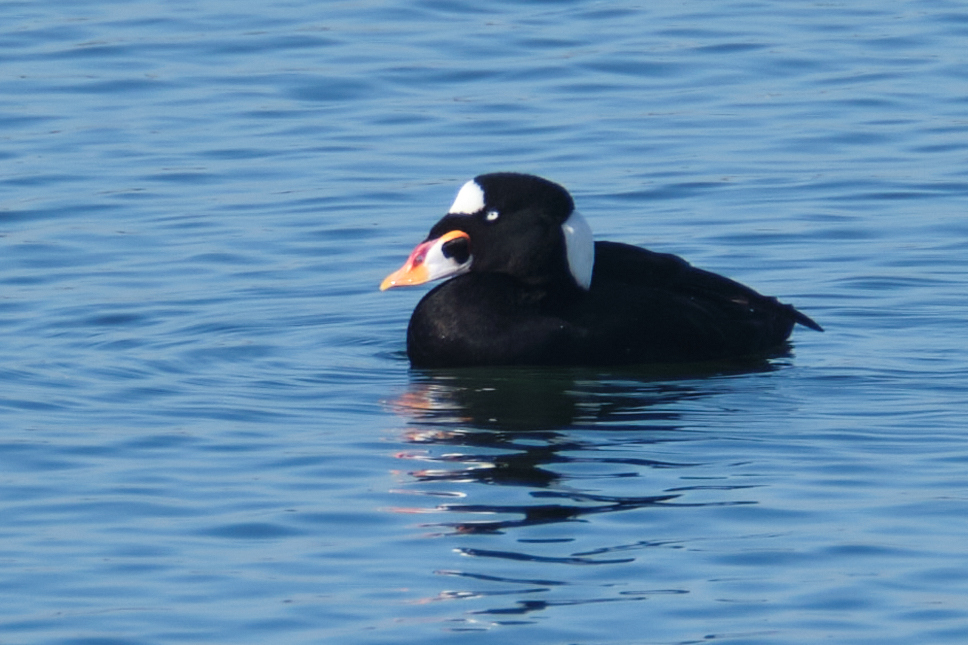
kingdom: Animalia
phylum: Chordata
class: Aves
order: Anseriformes
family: Anatidae
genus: Melanitta
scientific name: Melanitta perspicillata
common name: Surf scoter
